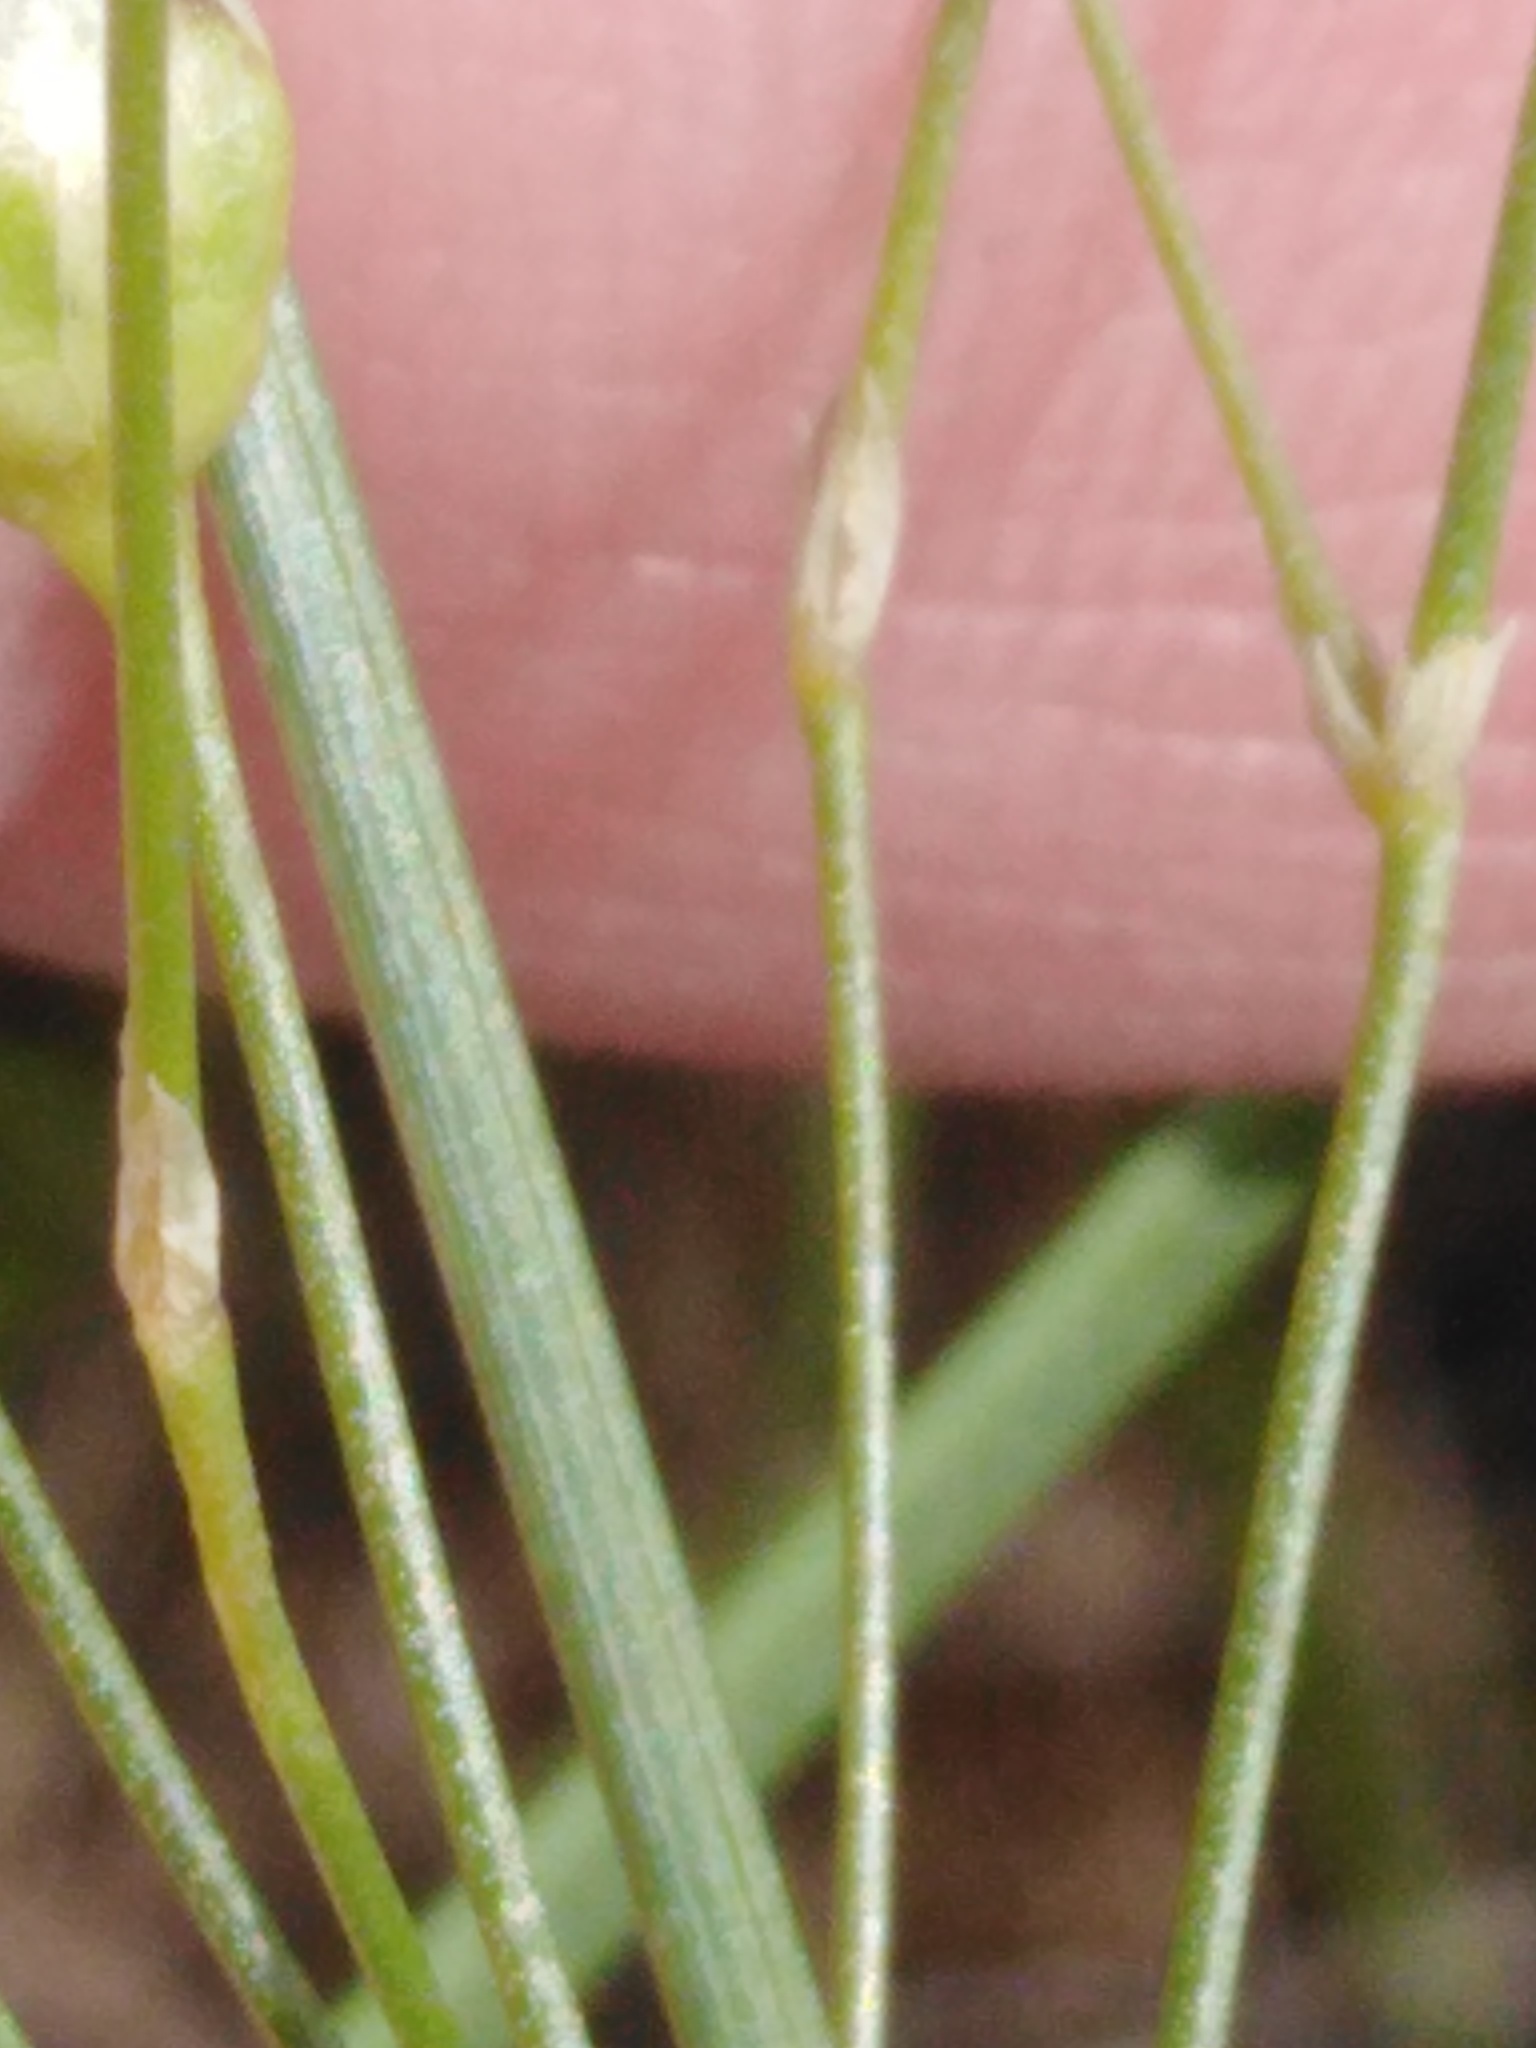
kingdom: Plantae
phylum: Tracheophyta
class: Magnoliopsida
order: Caryophyllales
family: Caryophyllaceae
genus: Eremogone
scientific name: Eremogone saxatilis
